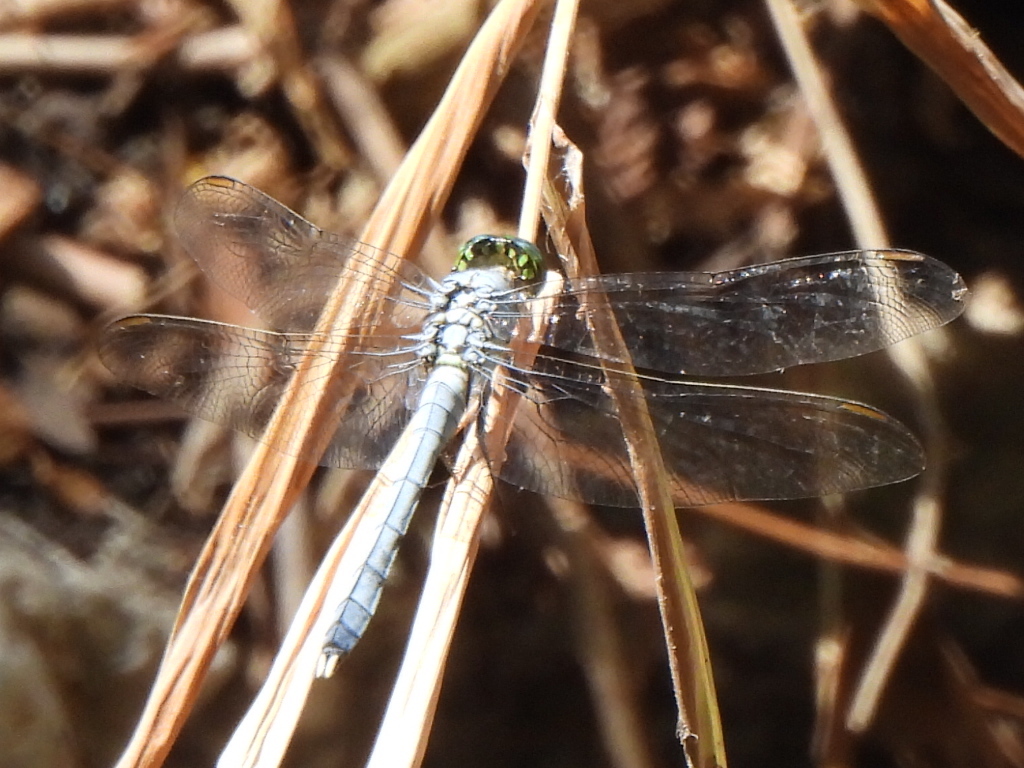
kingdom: Animalia
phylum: Arthropoda
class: Insecta
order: Odonata
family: Libellulidae
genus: Erythemis
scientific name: Erythemis simplicicollis
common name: Eastern pondhawk
